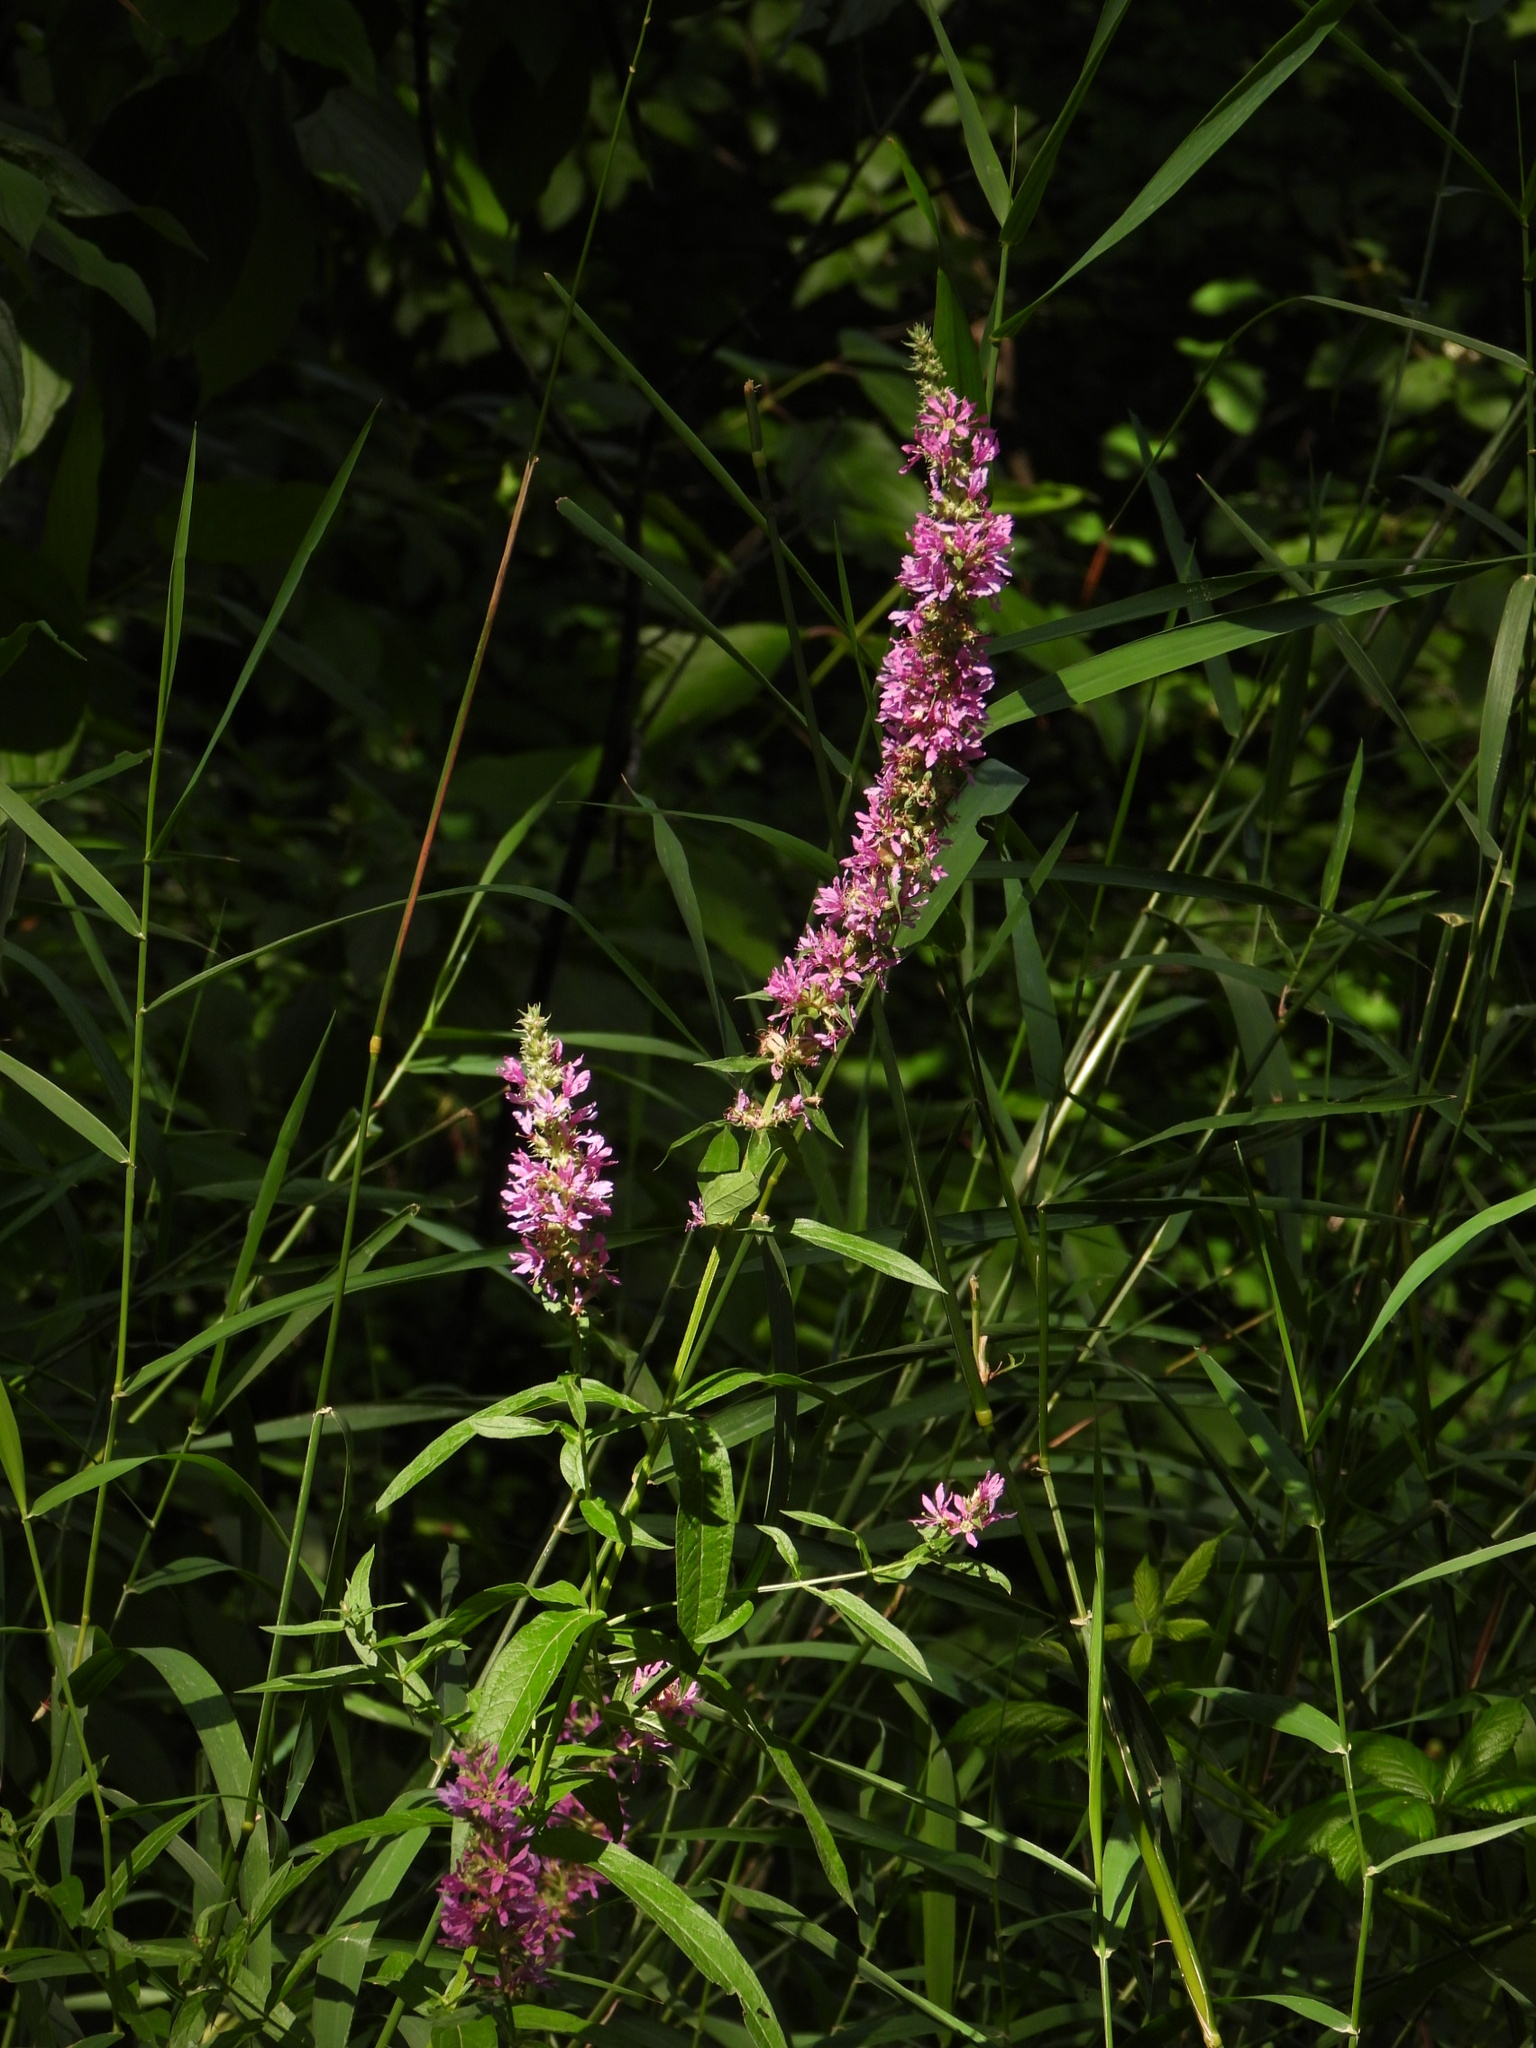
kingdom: Plantae
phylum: Tracheophyta
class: Magnoliopsida
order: Myrtales
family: Lythraceae
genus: Lythrum
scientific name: Lythrum salicaria
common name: Purple loosestrife
